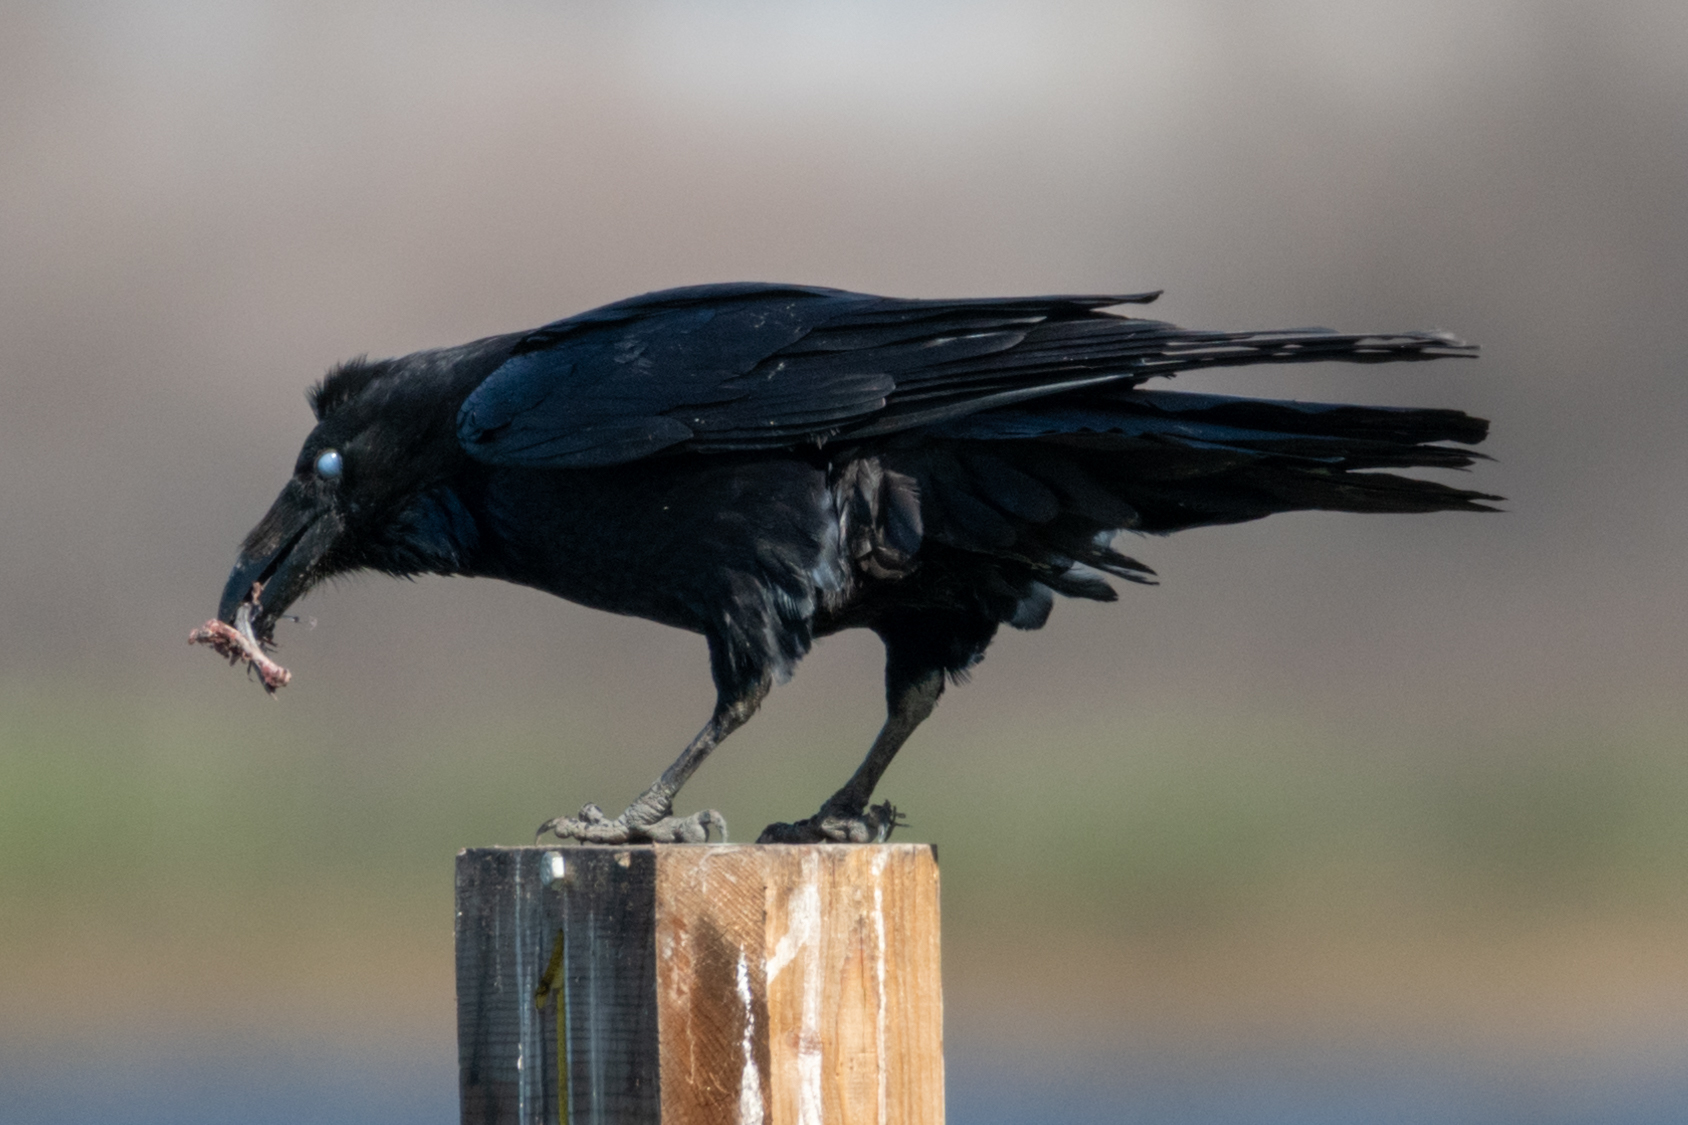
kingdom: Animalia
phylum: Chordata
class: Aves
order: Passeriformes
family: Corvidae
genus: Corvus
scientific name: Corvus corax
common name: Common raven
